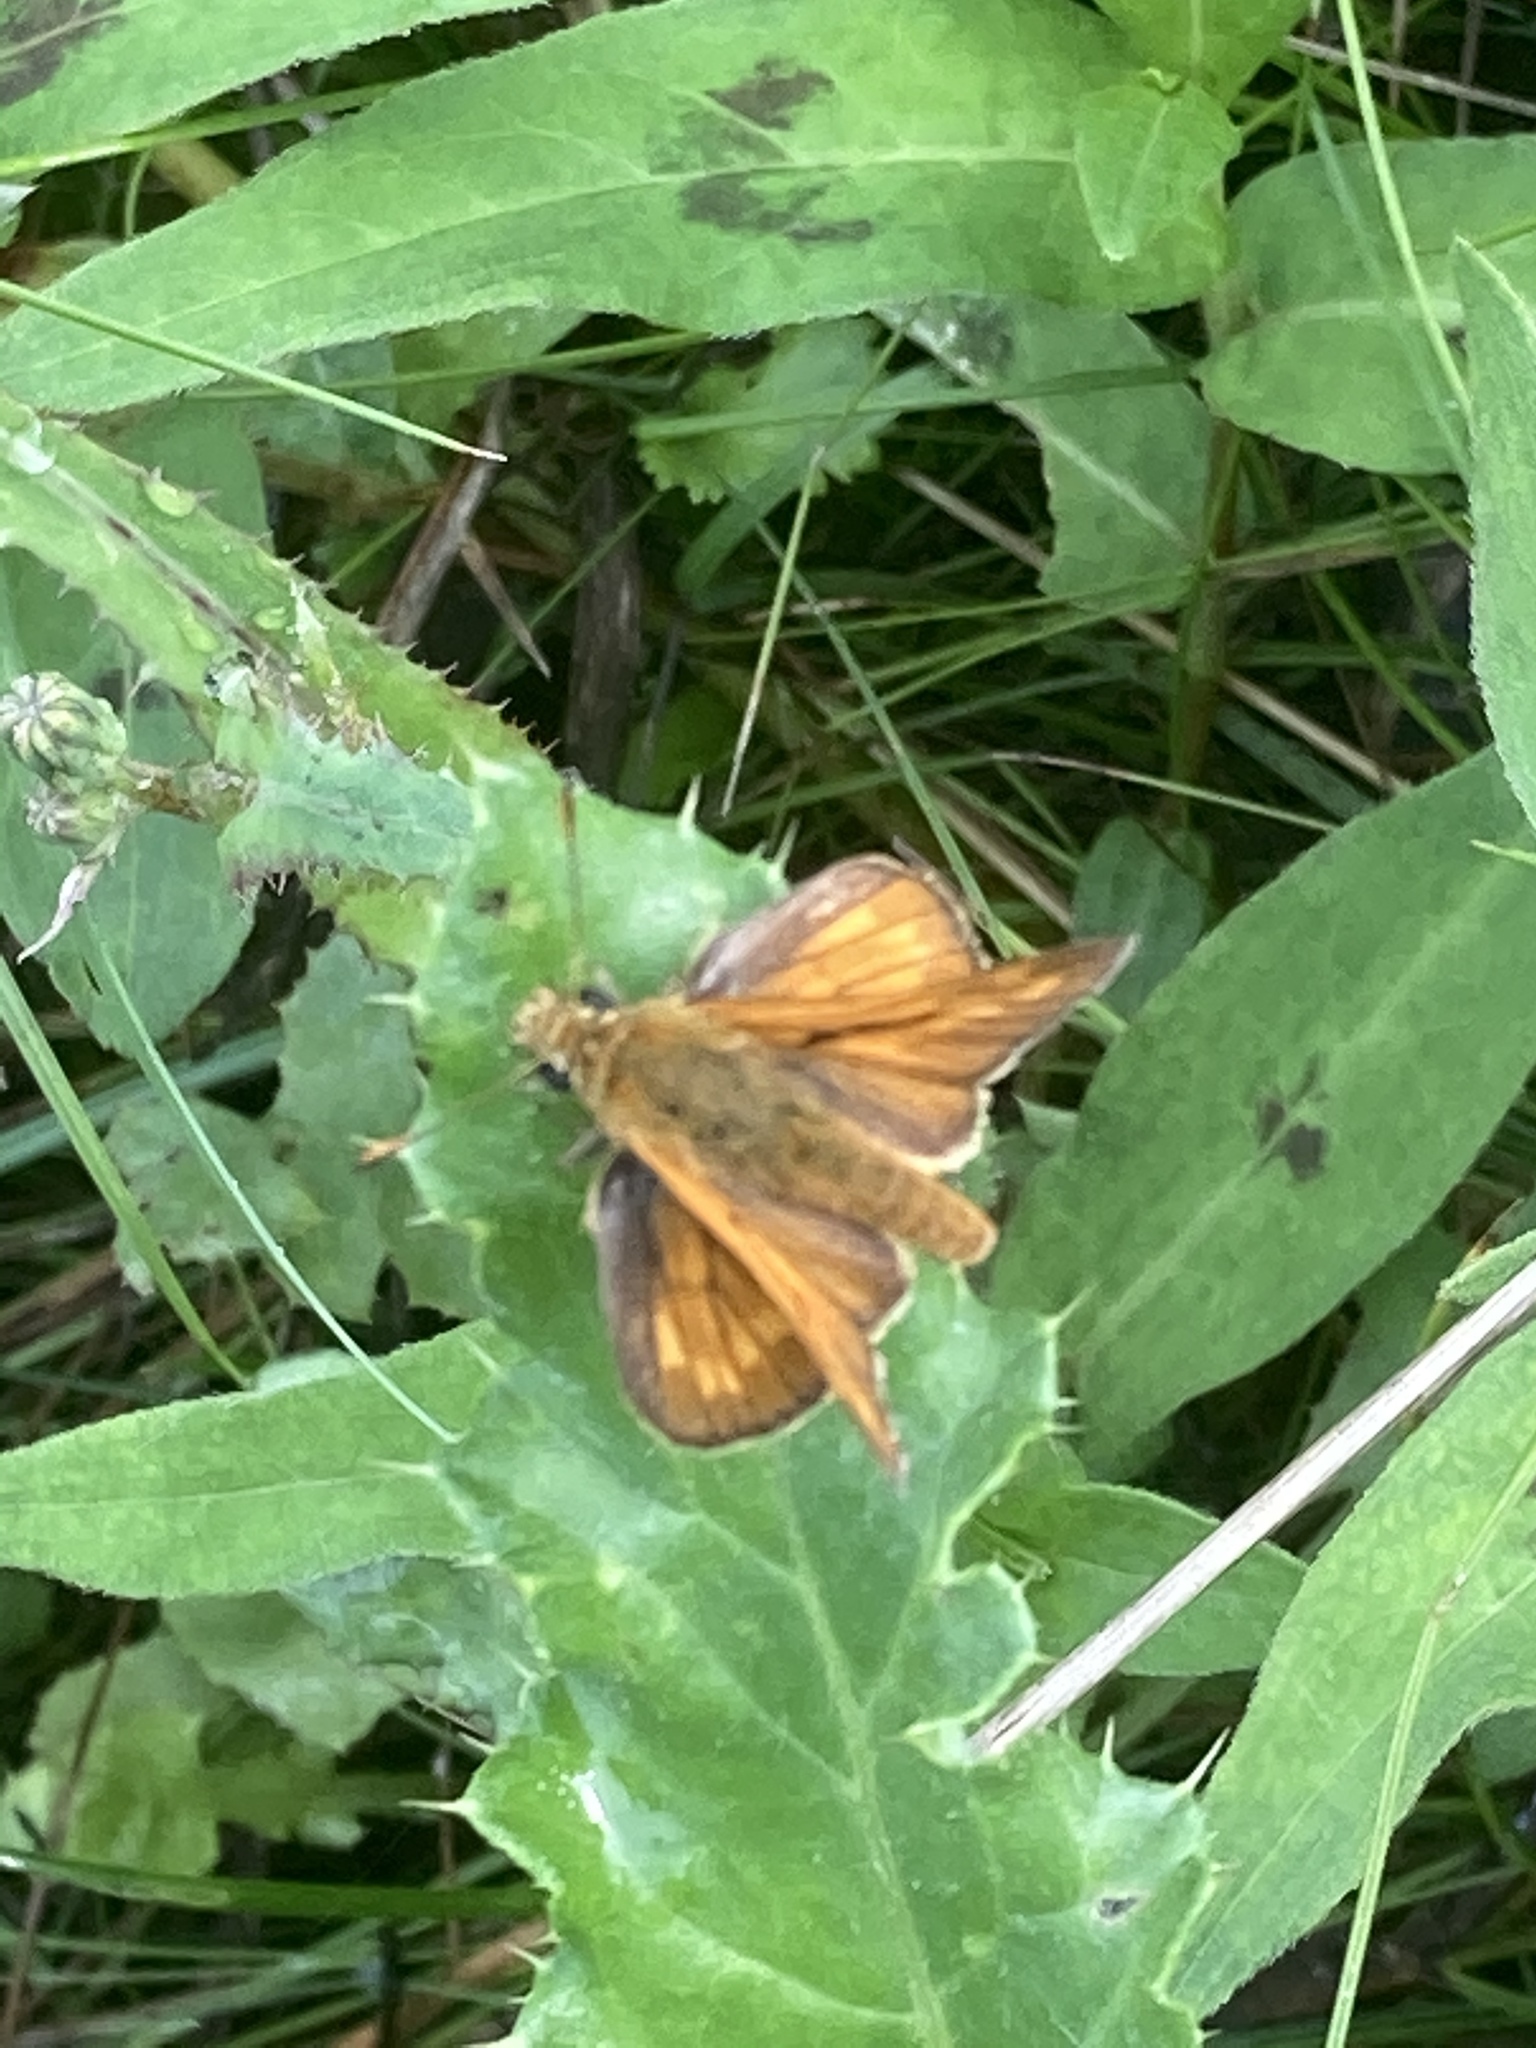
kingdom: Animalia
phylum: Arthropoda
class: Insecta
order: Lepidoptera
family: Hesperiidae
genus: Ochlodes
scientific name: Ochlodes venata
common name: Large skipper
